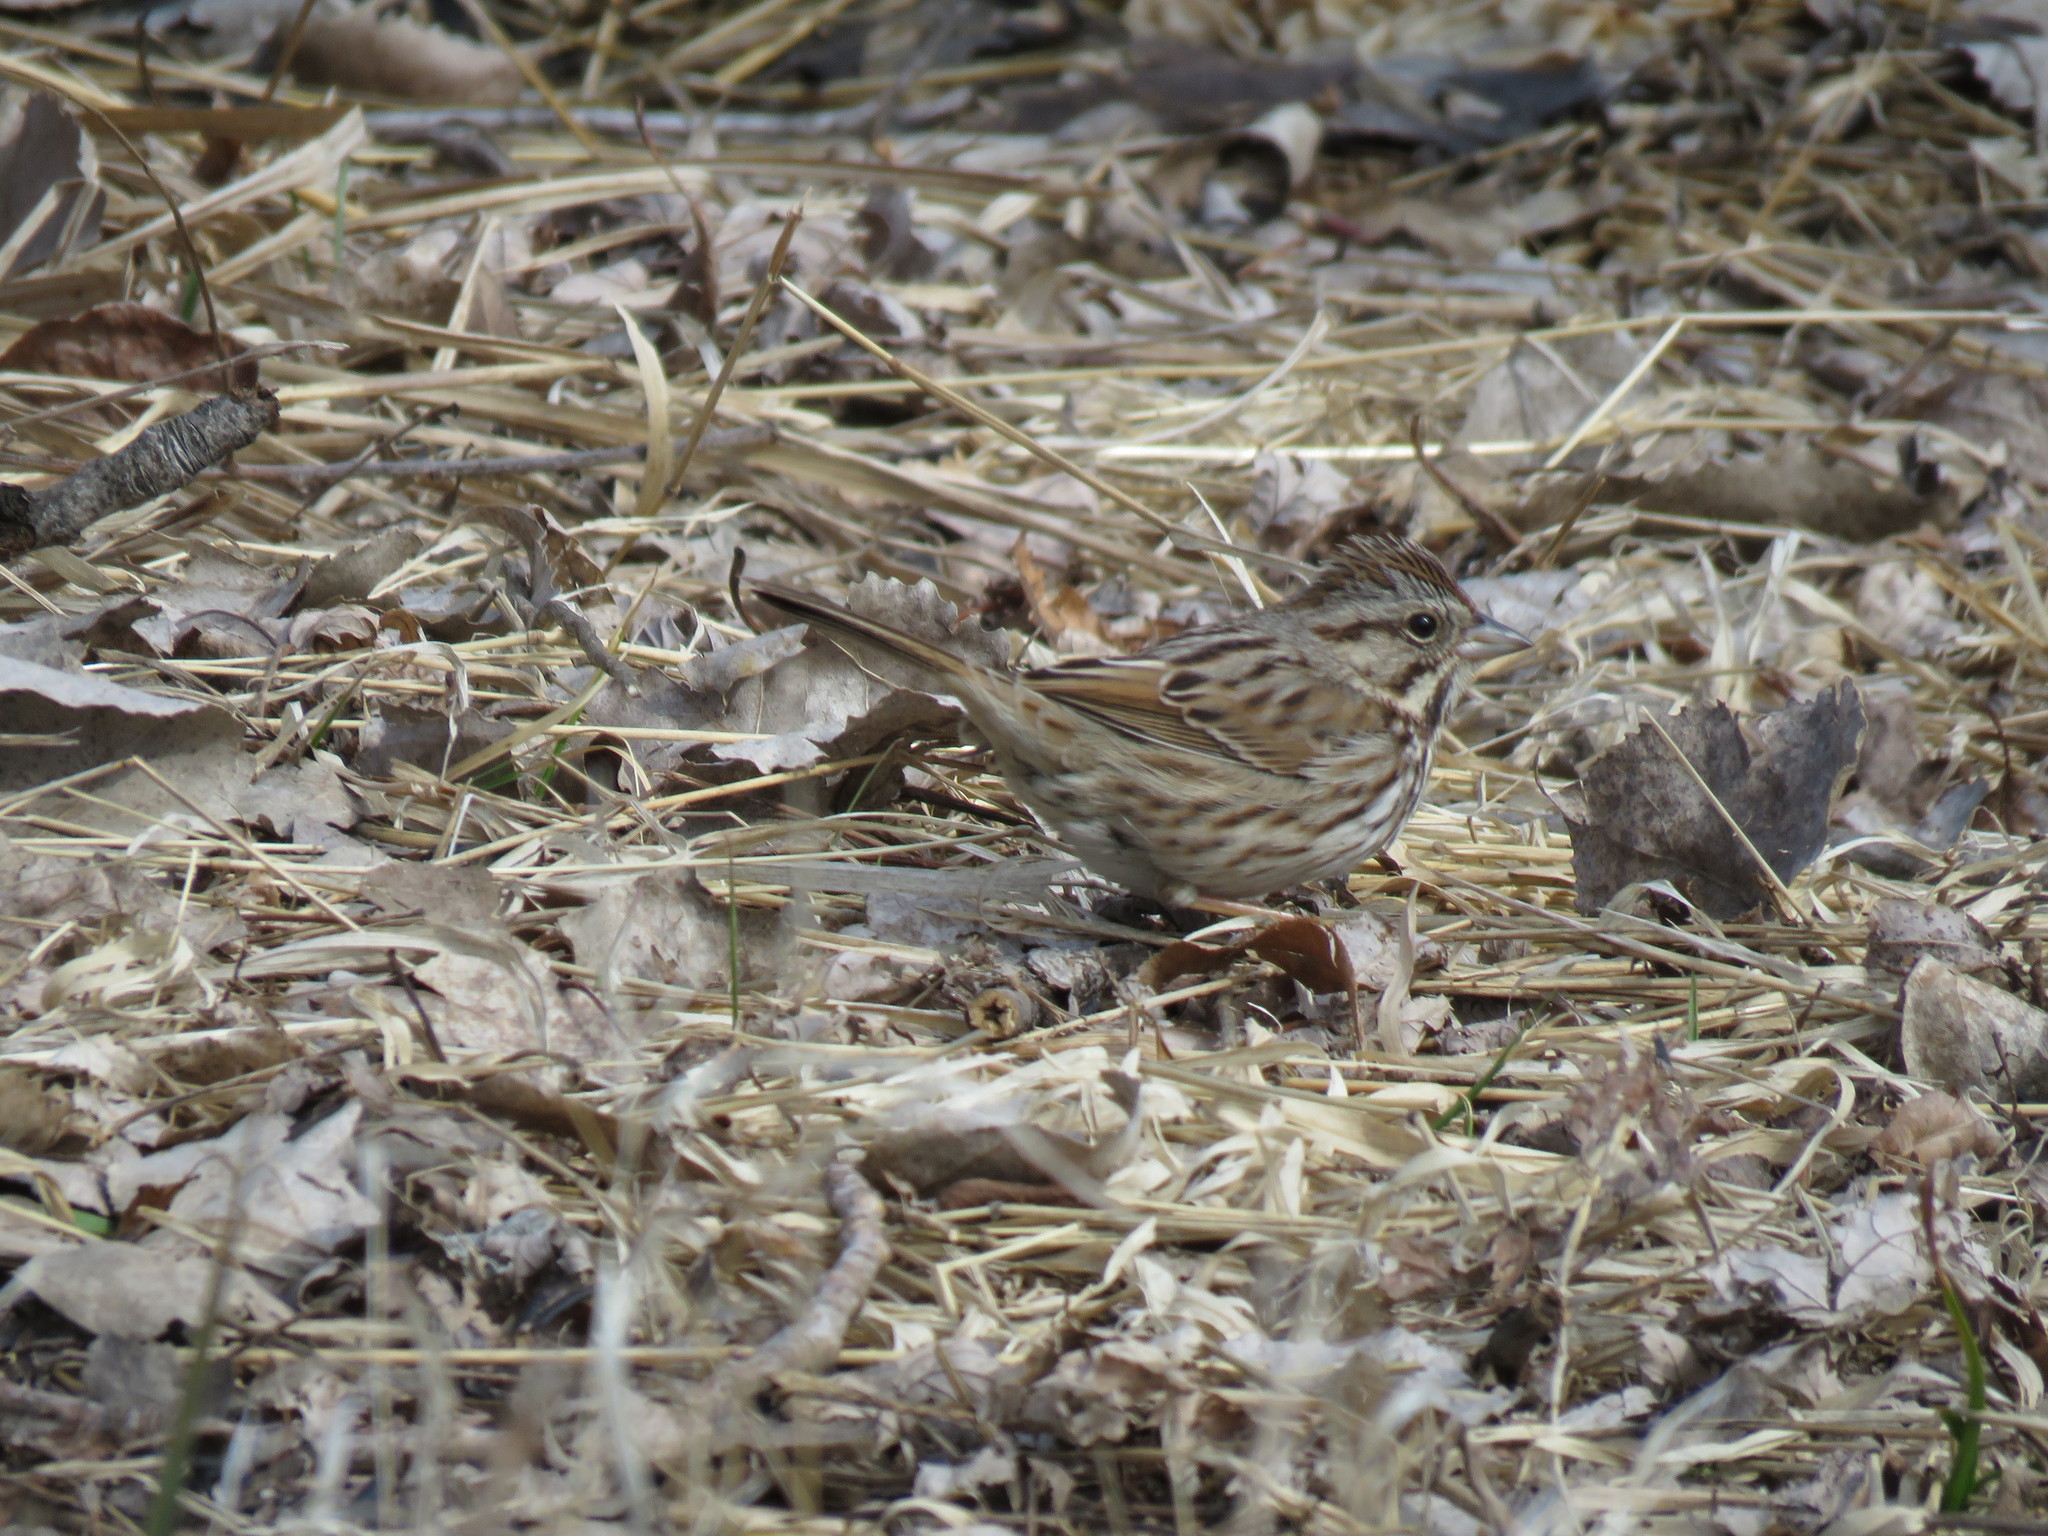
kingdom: Animalia
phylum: Chordata
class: Aves
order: Passeriformes
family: Passerellidae
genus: Melospiza
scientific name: Melospiza melodia
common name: Song sparrow
